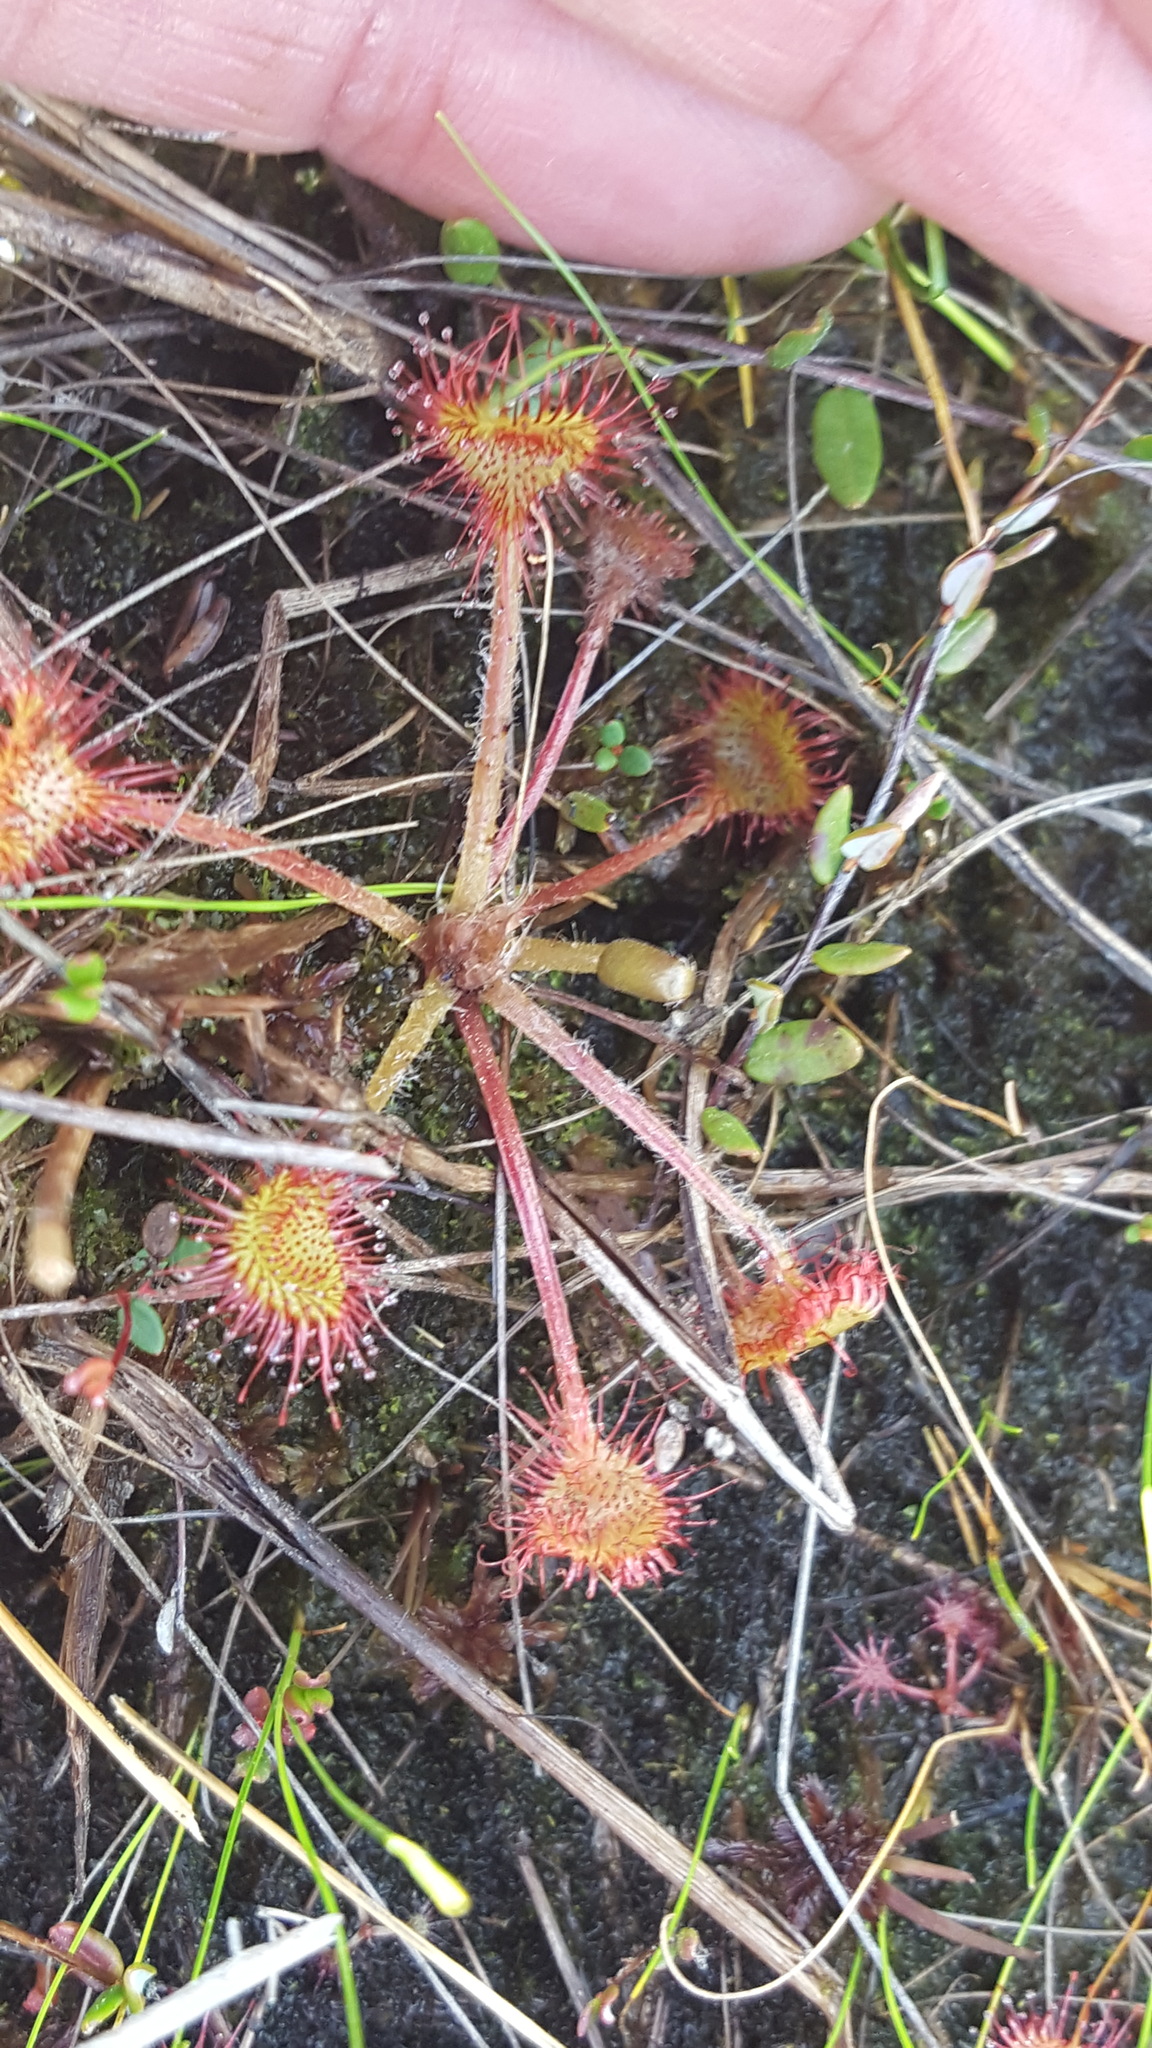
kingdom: Plantae
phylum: Tracheophyta
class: Magnoliopsida
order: Caryophyllales
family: Droseraceae
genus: Drosera
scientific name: Drosera rotundifolia
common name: Round-leaved sundew
